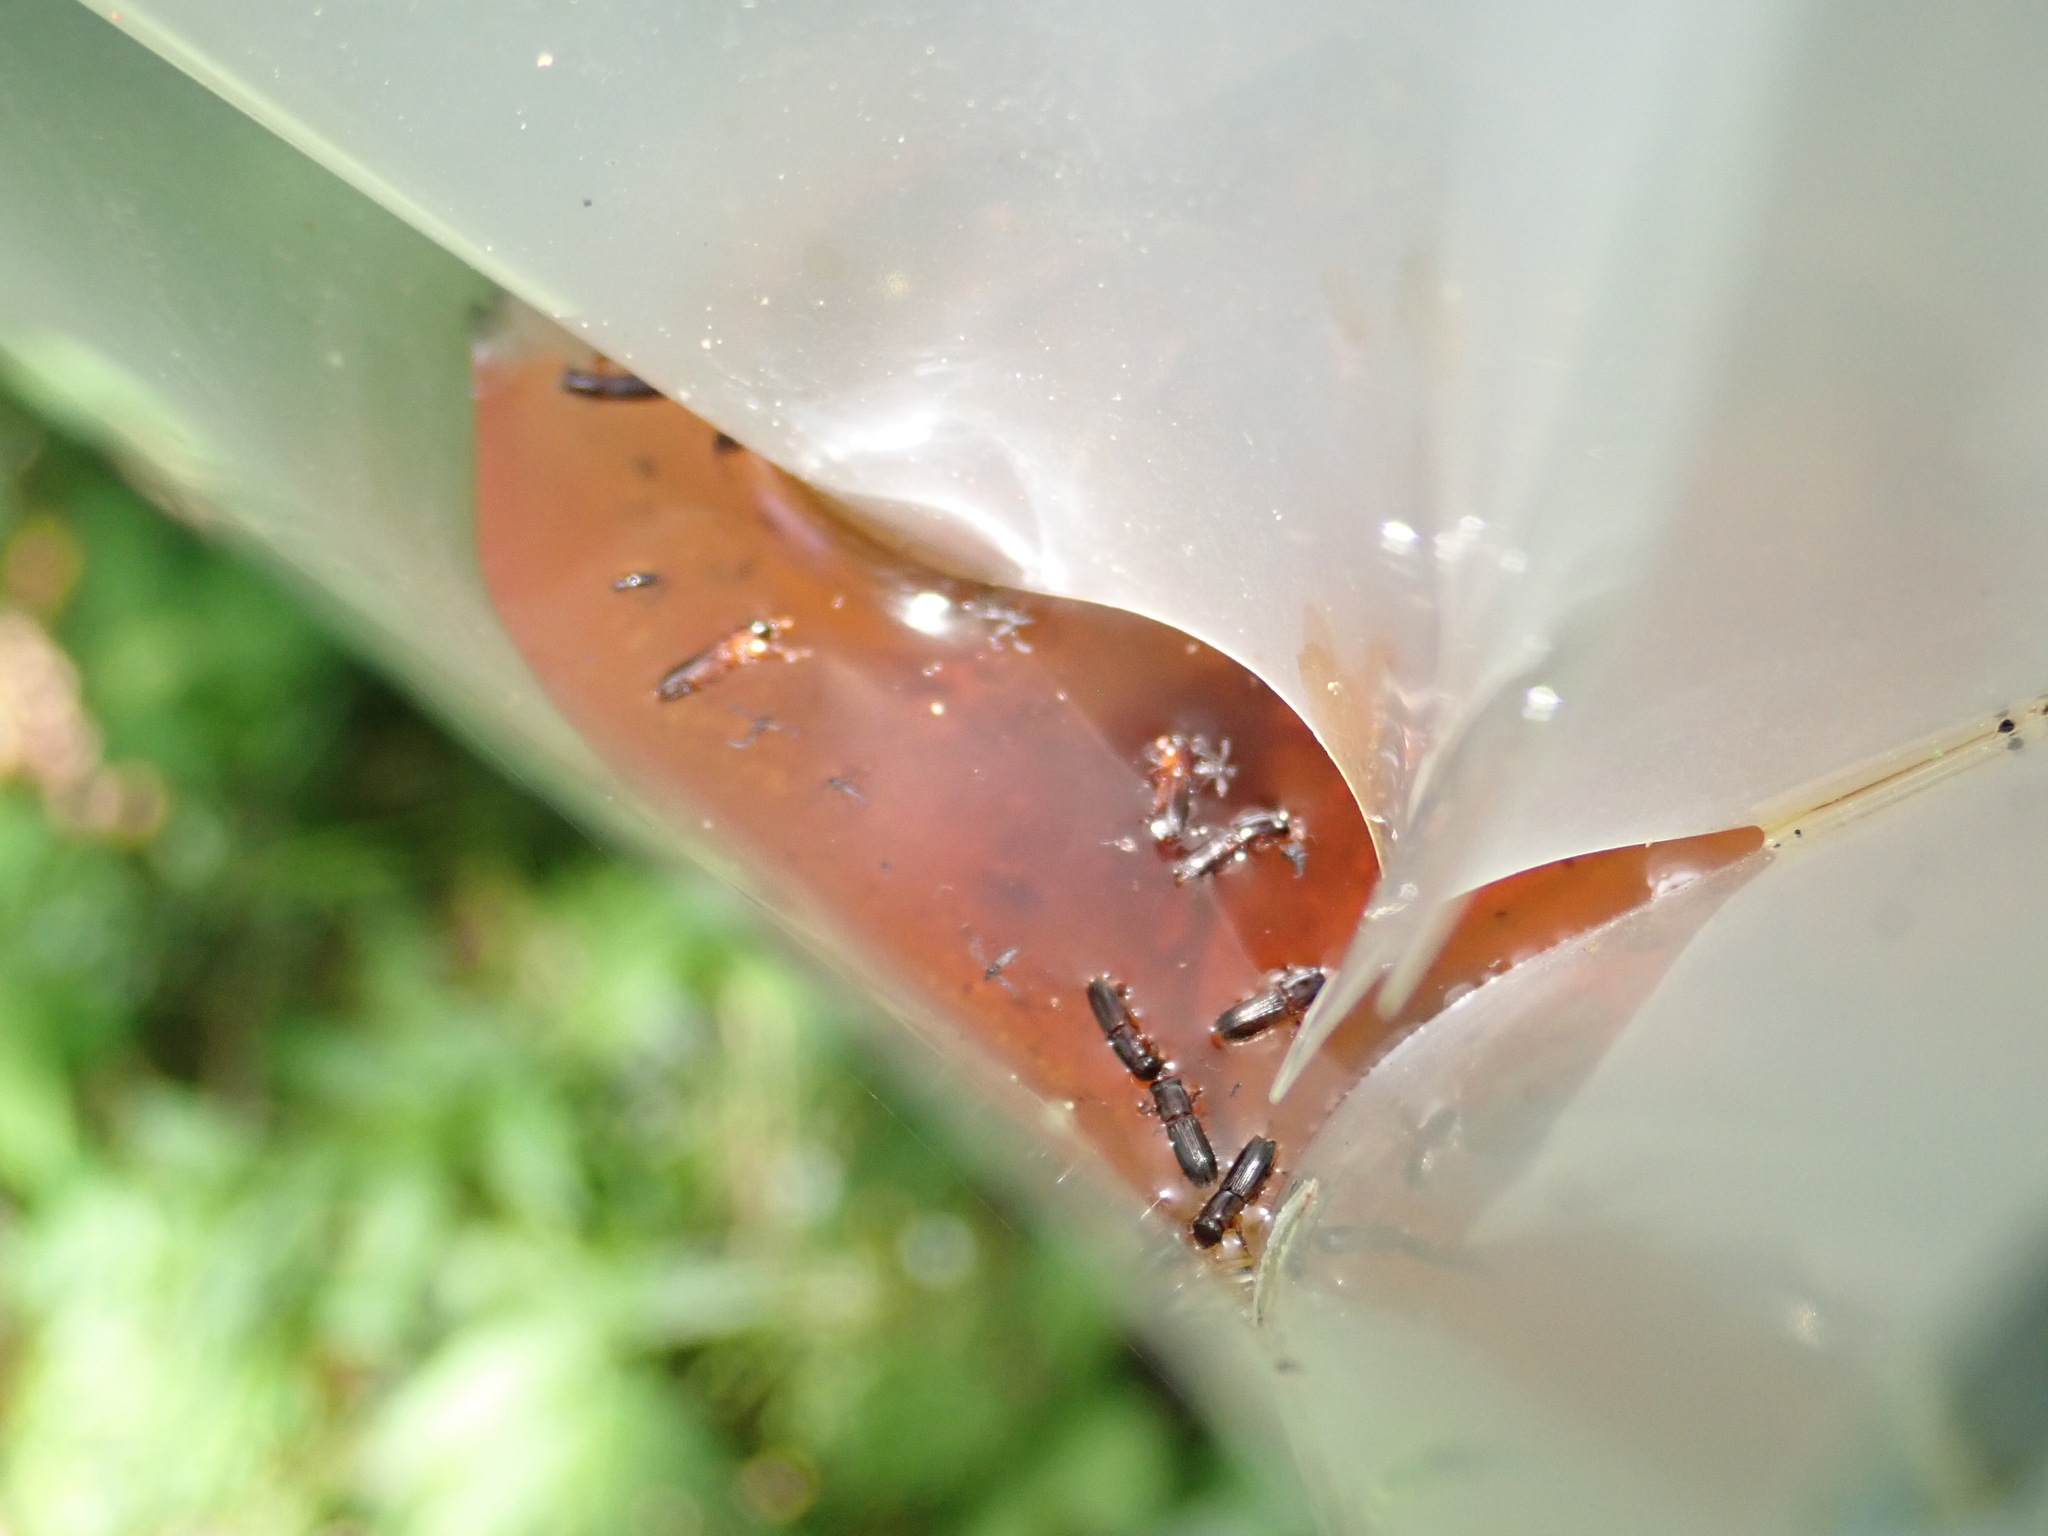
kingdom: Animalia
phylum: Arthropoda
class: Insecta
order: Coleoptera
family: Curculionidae
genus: Platypus
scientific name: Platypus quercivorus
